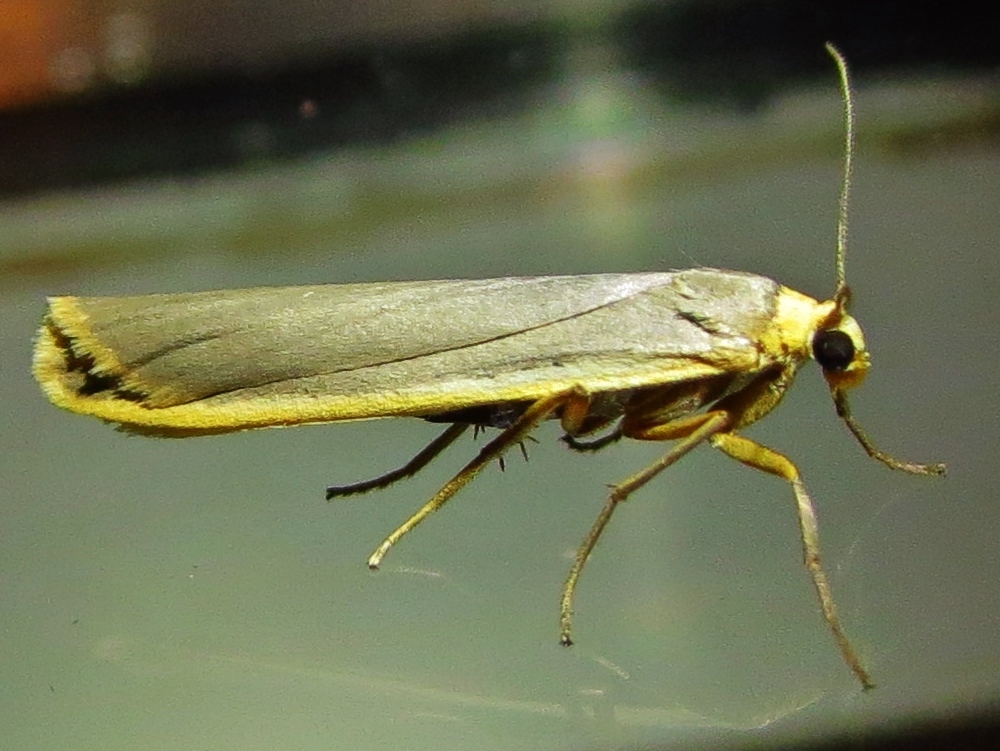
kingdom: Animalia
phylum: Arthropoda
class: Insecta
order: Lepidoptera
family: Erebidae
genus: Manulea
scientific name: Manulea complana
